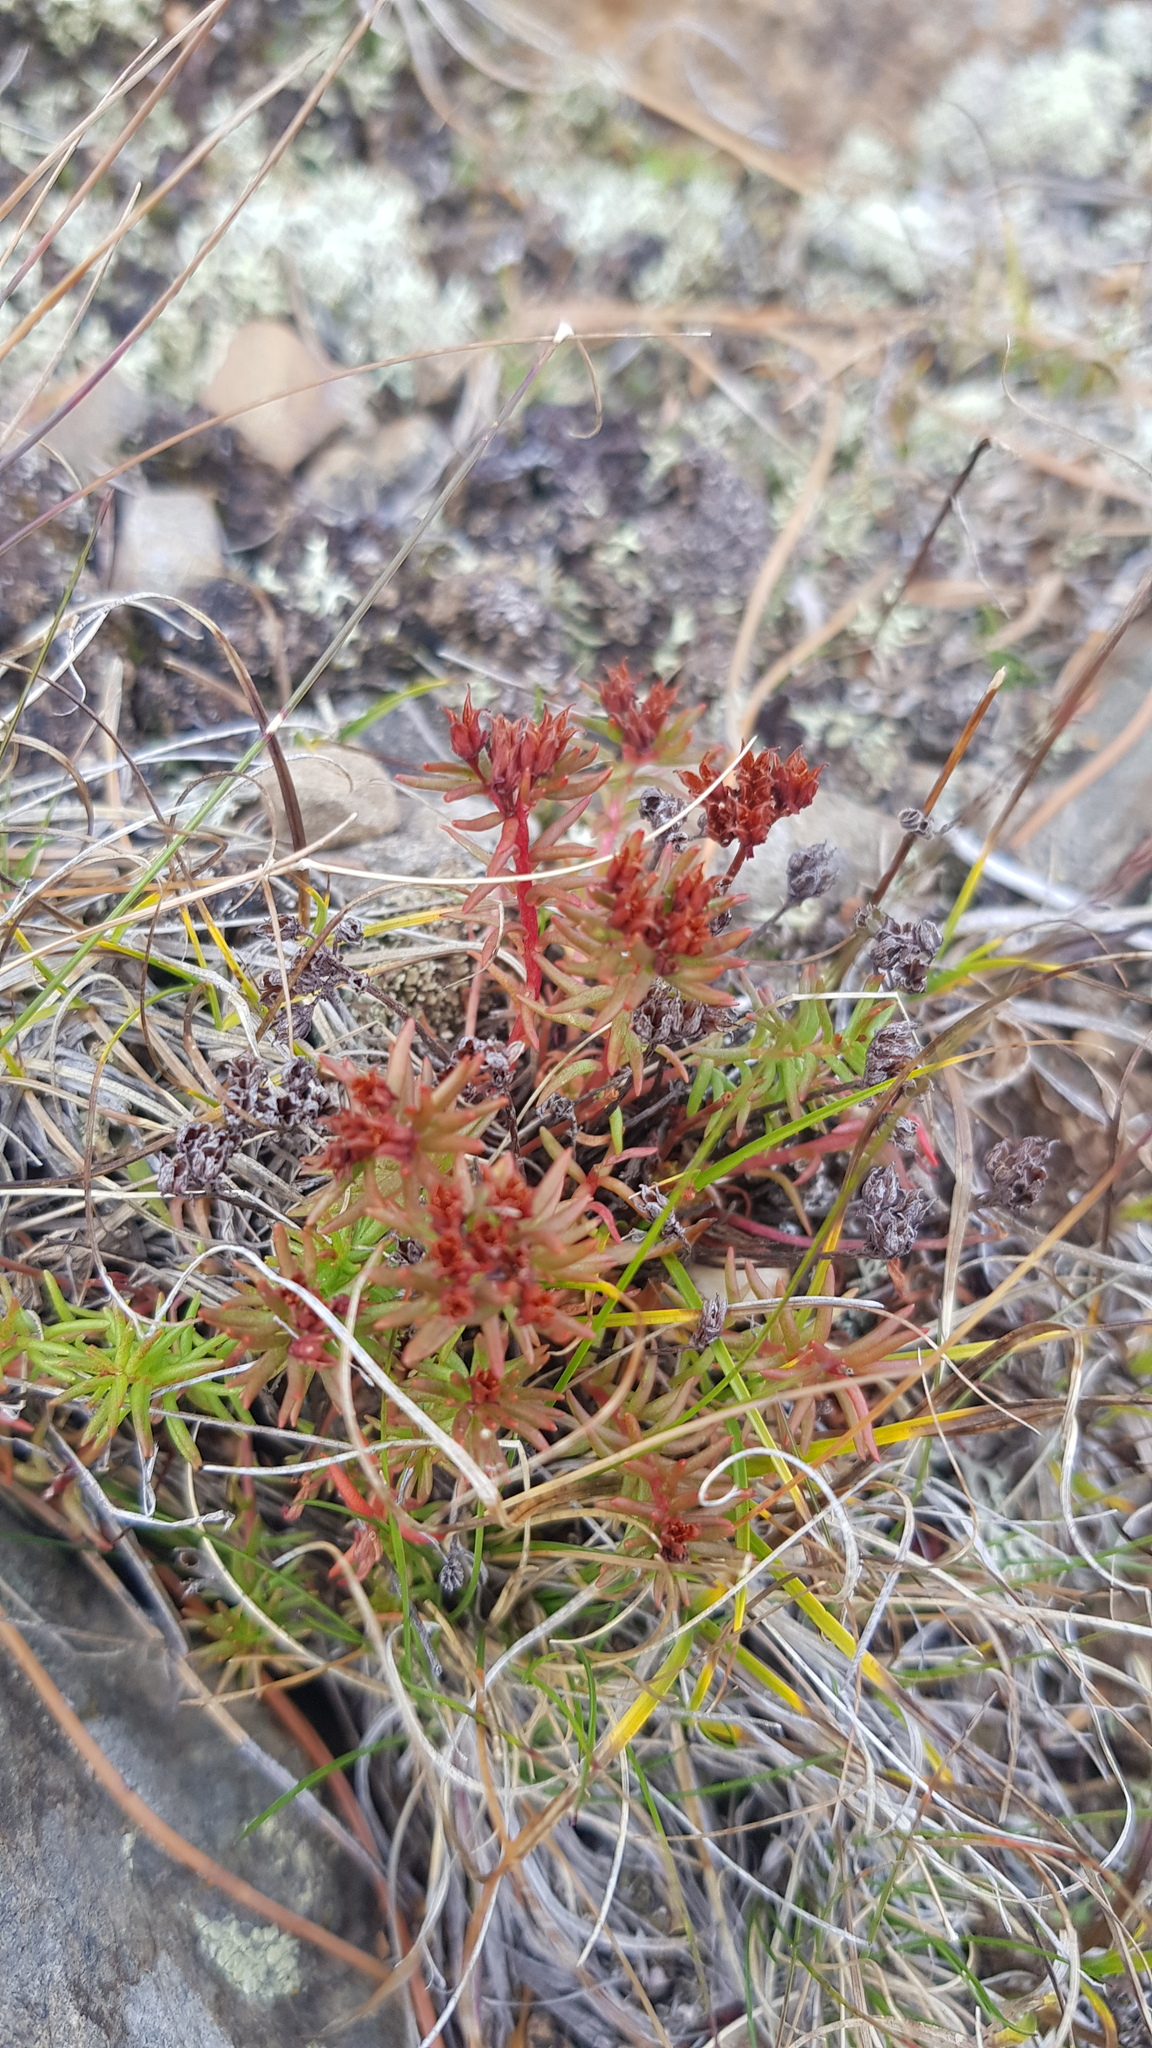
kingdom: Plantae
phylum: Tracheophyta
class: Magnoliopsida
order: Saxifragales
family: Crassulaceae
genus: Rhodiola
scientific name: Rhodiola quadrifida
